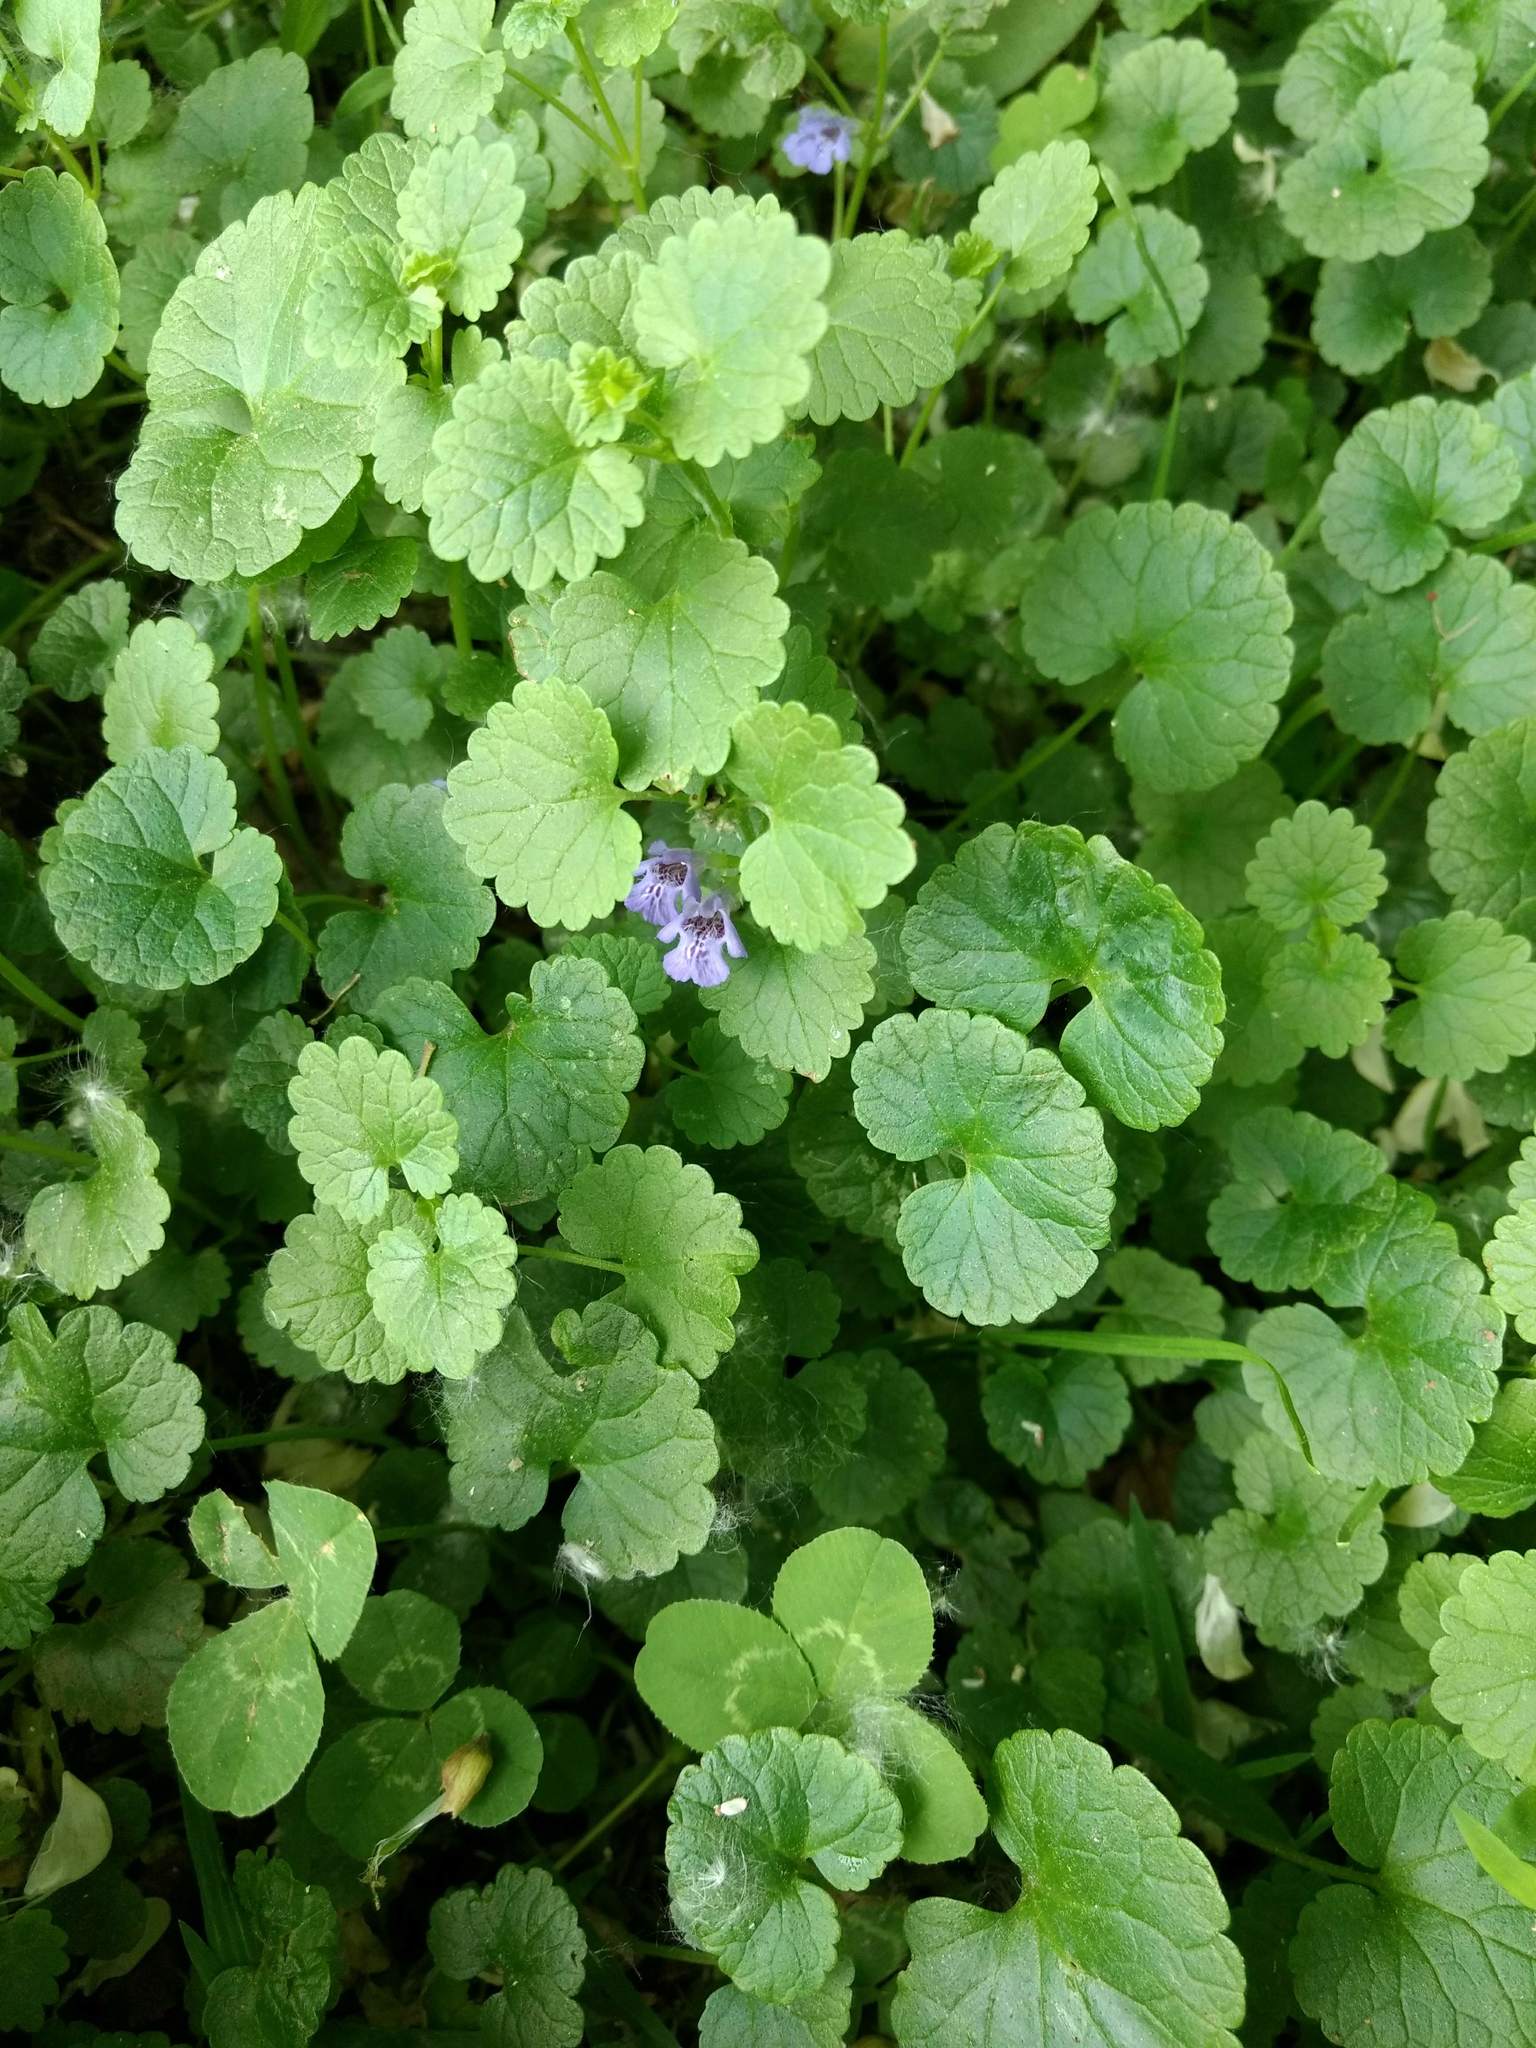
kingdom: Plantae
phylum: Tracheophyta
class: Magnoliopsida
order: Lamiales
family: Lamiaceae
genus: Glechoma
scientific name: Glechoma hederacea
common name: Ground ivy
